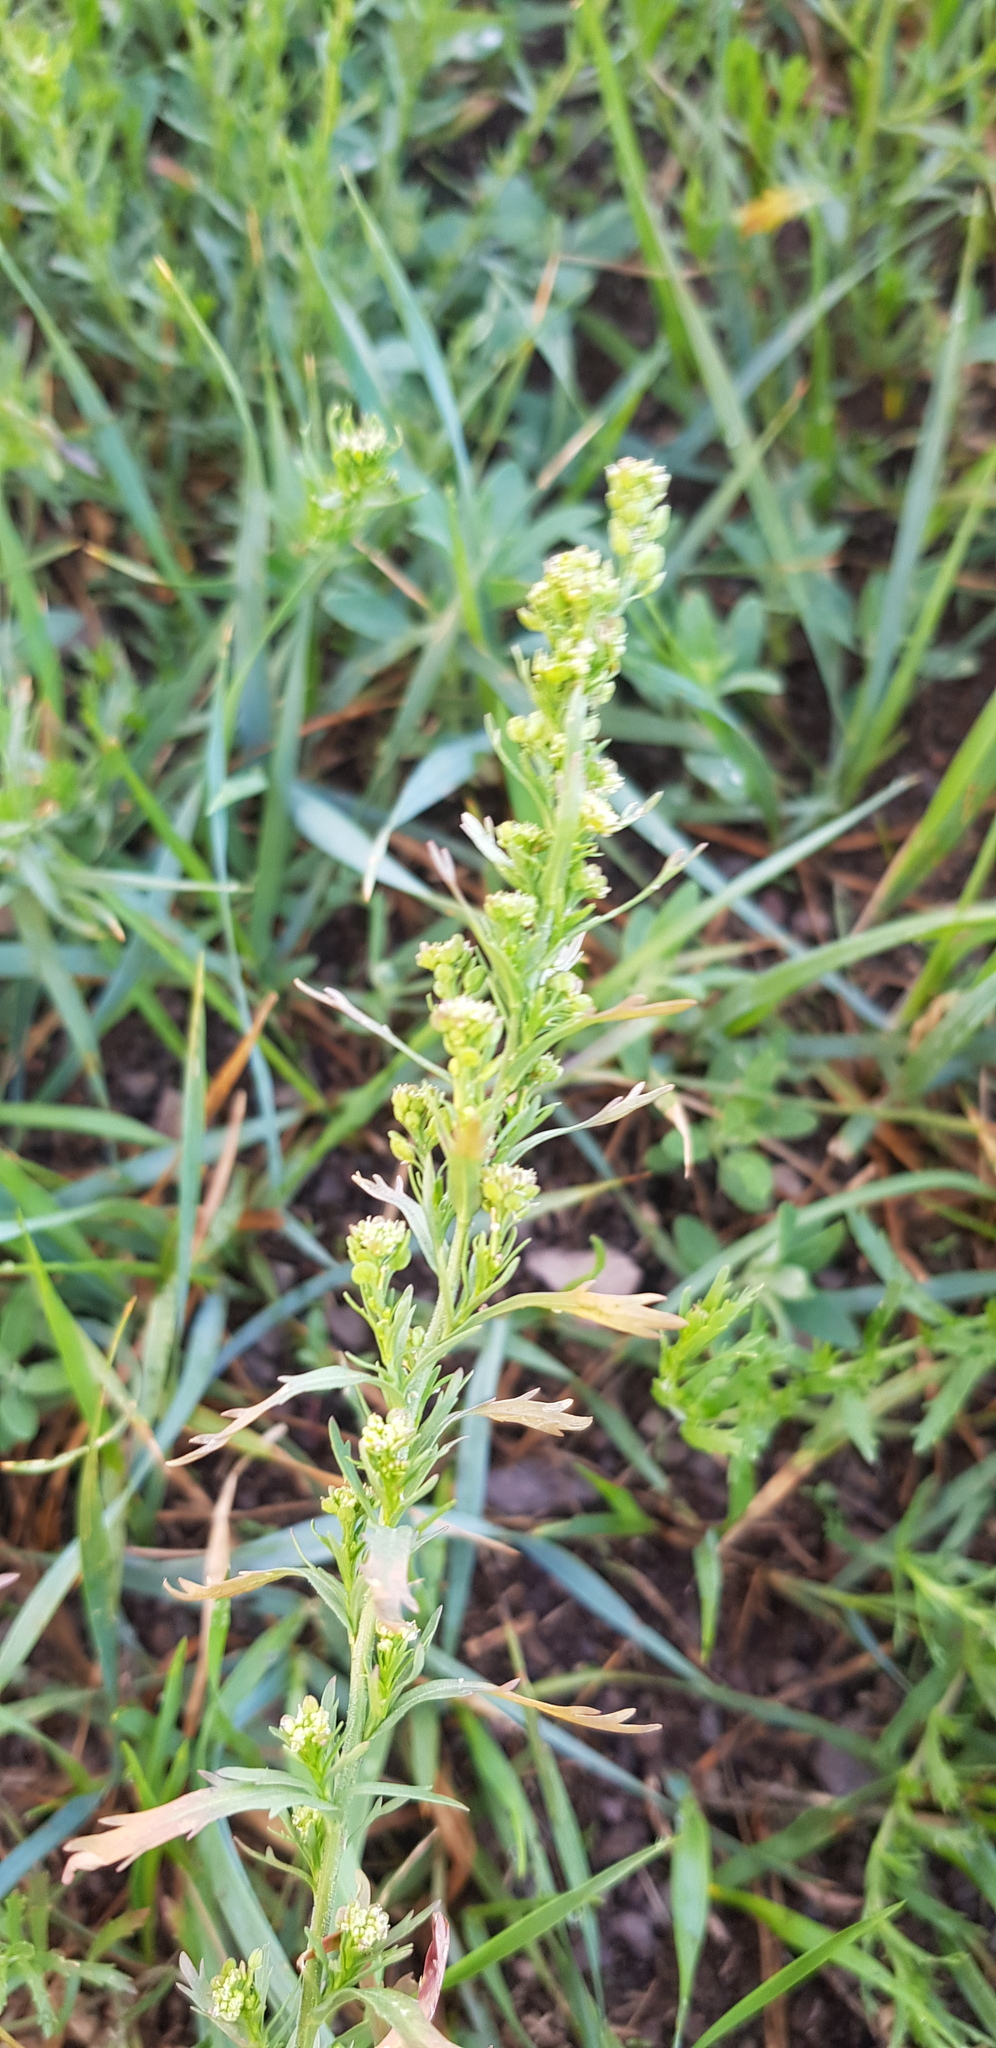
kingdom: Plantae
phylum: Tracheophyta
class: Magnoliopsida
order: Asterales
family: Asteraceae
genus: Artemisia
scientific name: Artemisia dracunculus
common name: Tarragon
